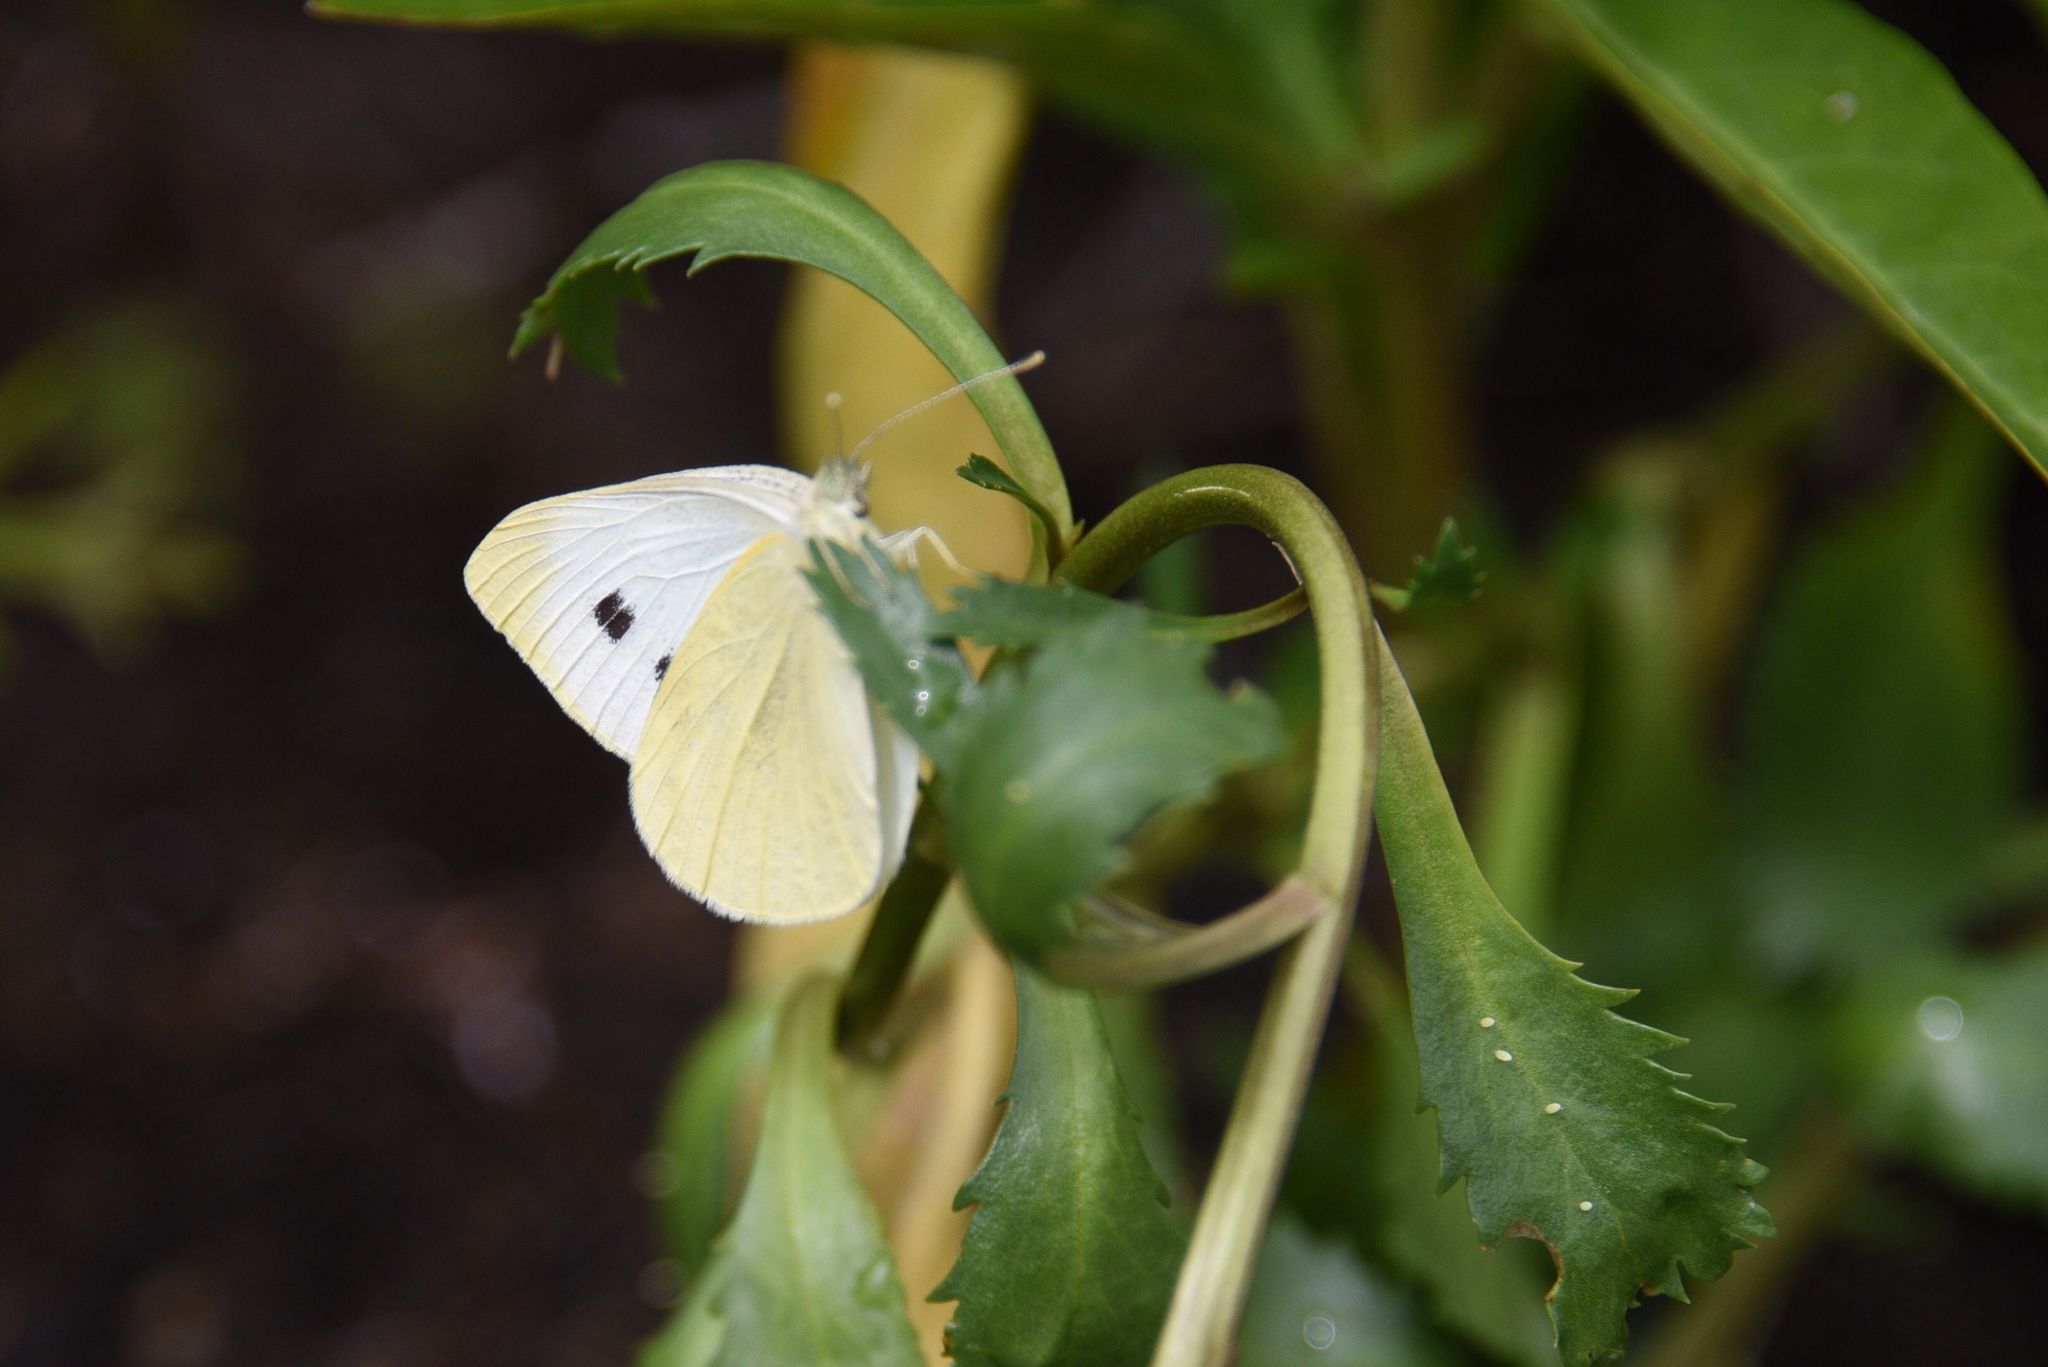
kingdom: Animalia
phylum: Arthropoda
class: Insecta
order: Lepidoptera
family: Pieridae
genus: Pieris
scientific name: Pieris rapae
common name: Small white
